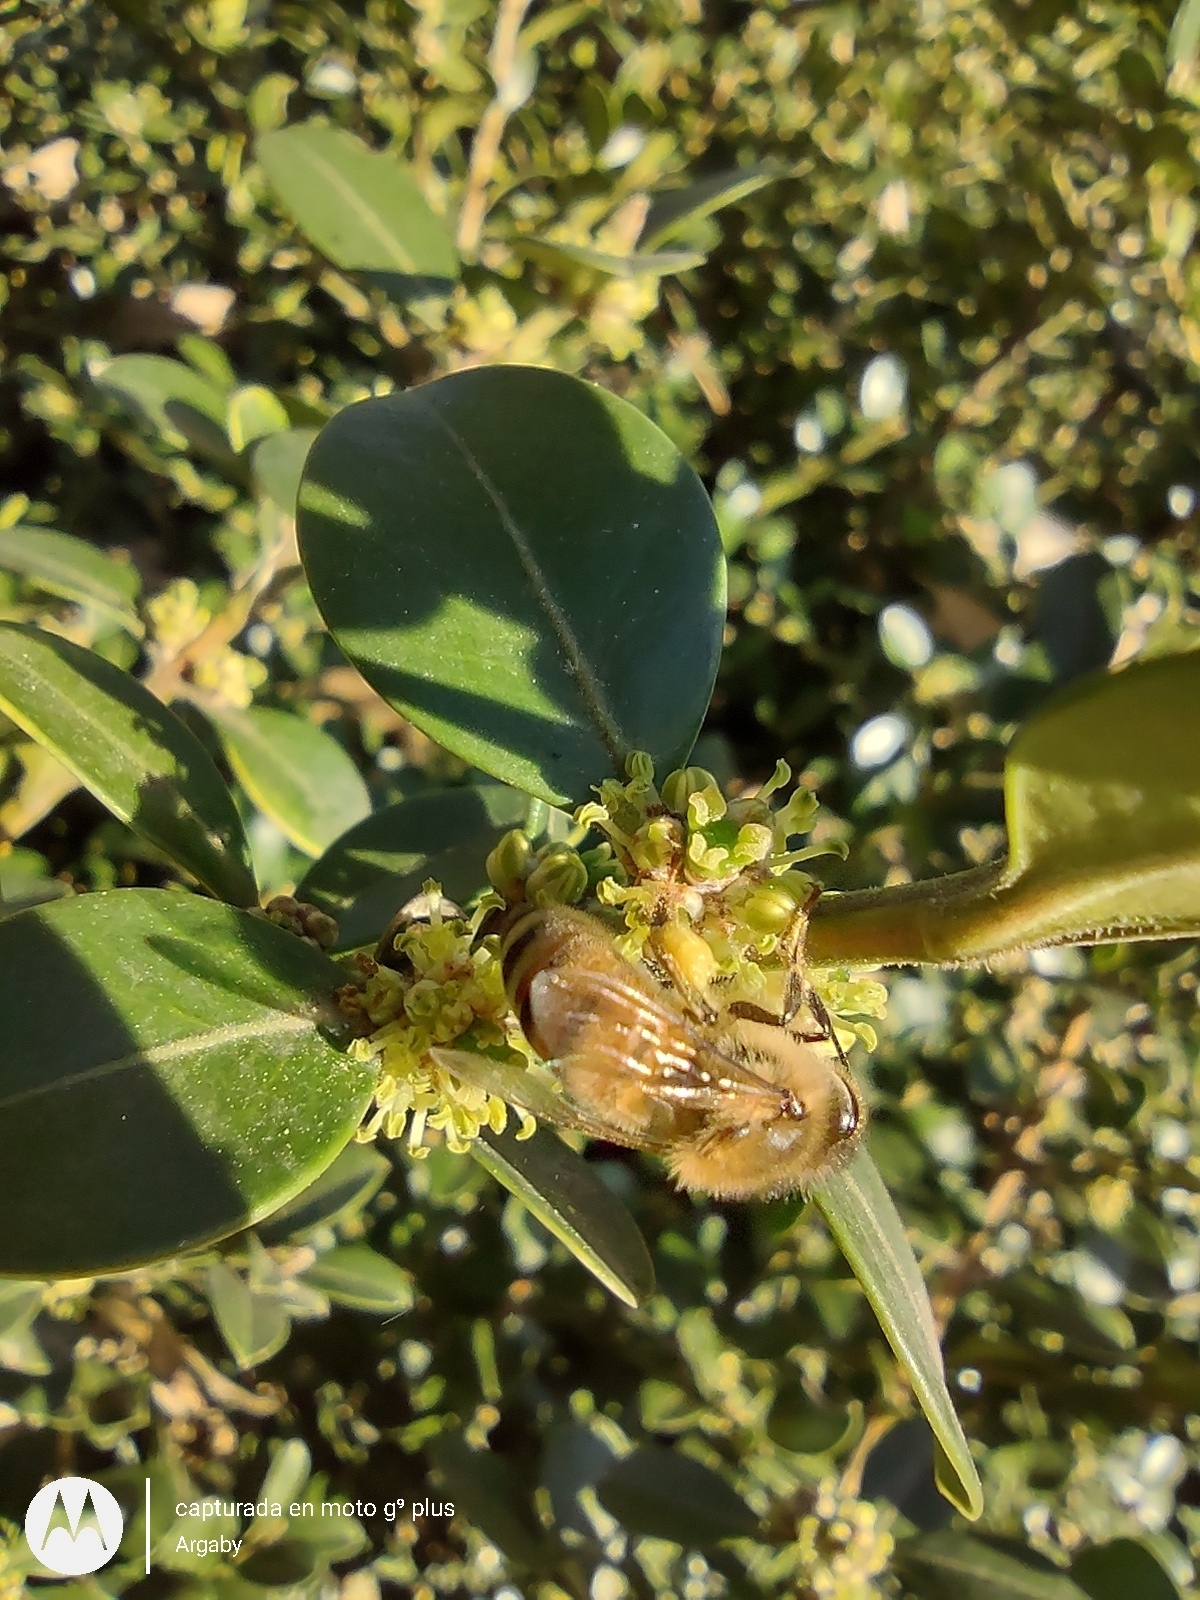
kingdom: Animalia
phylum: Arthropoda
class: Insecta
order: Hymenoptera
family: Apidae
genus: Apis
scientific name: Apis mellifera
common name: Honey bee
